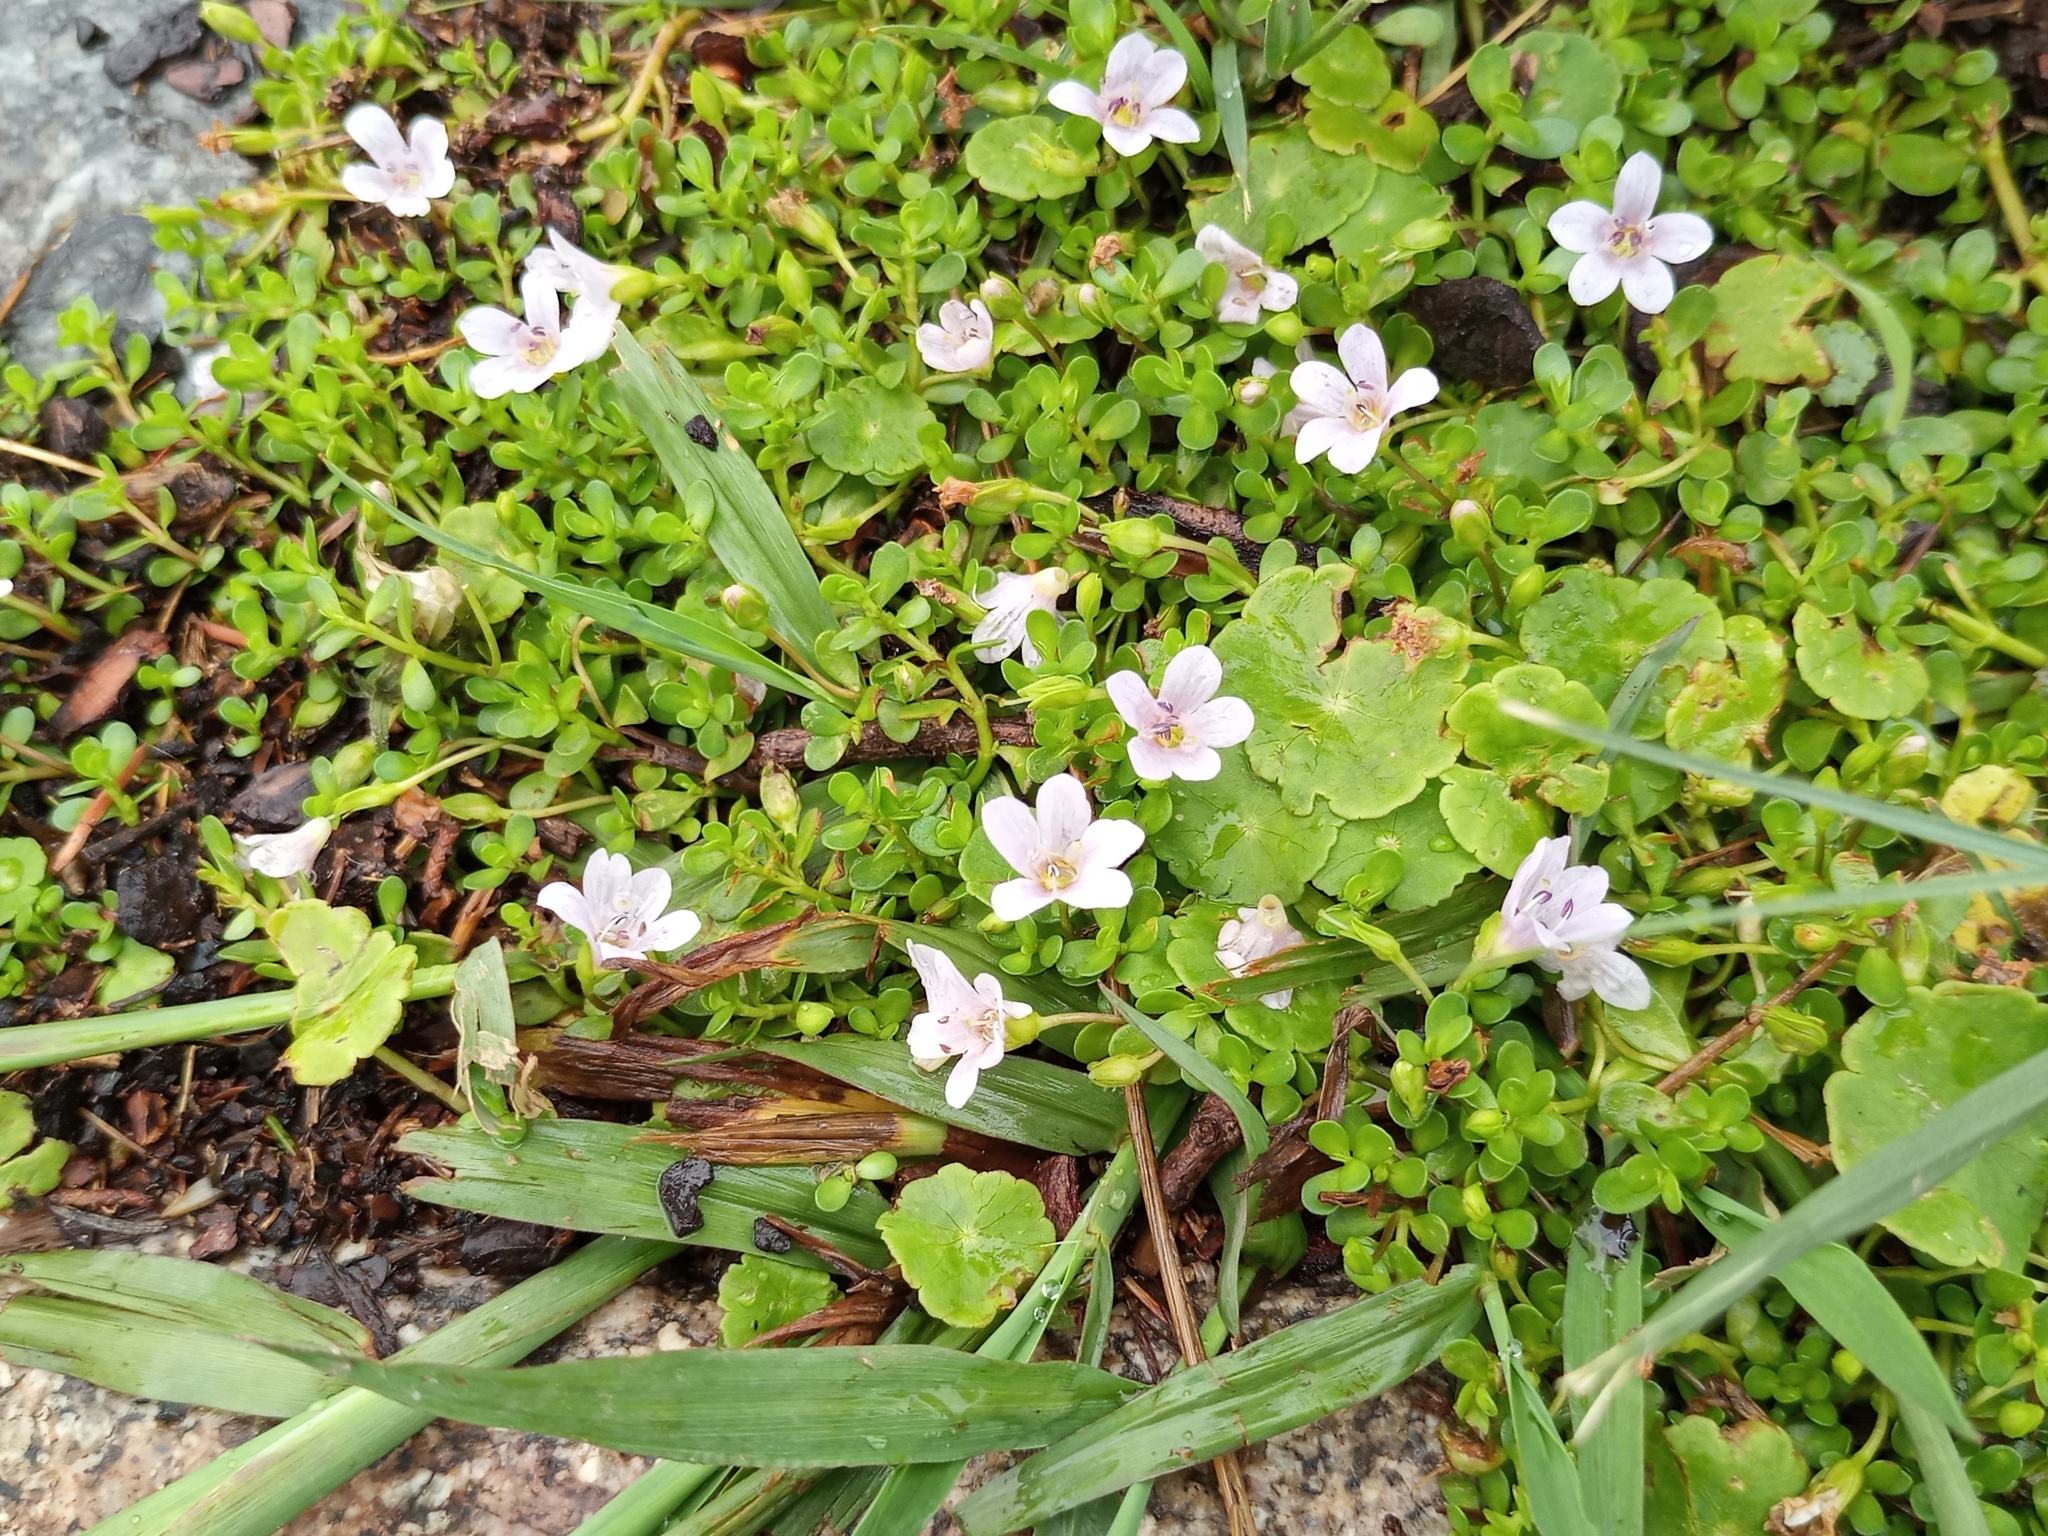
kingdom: Plantae
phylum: Tracheophyta
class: Magnoliopsida
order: Lamiales
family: Plantaginaceae
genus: Bacopa
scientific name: Bacopa monnieri
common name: Indian-pennywort
